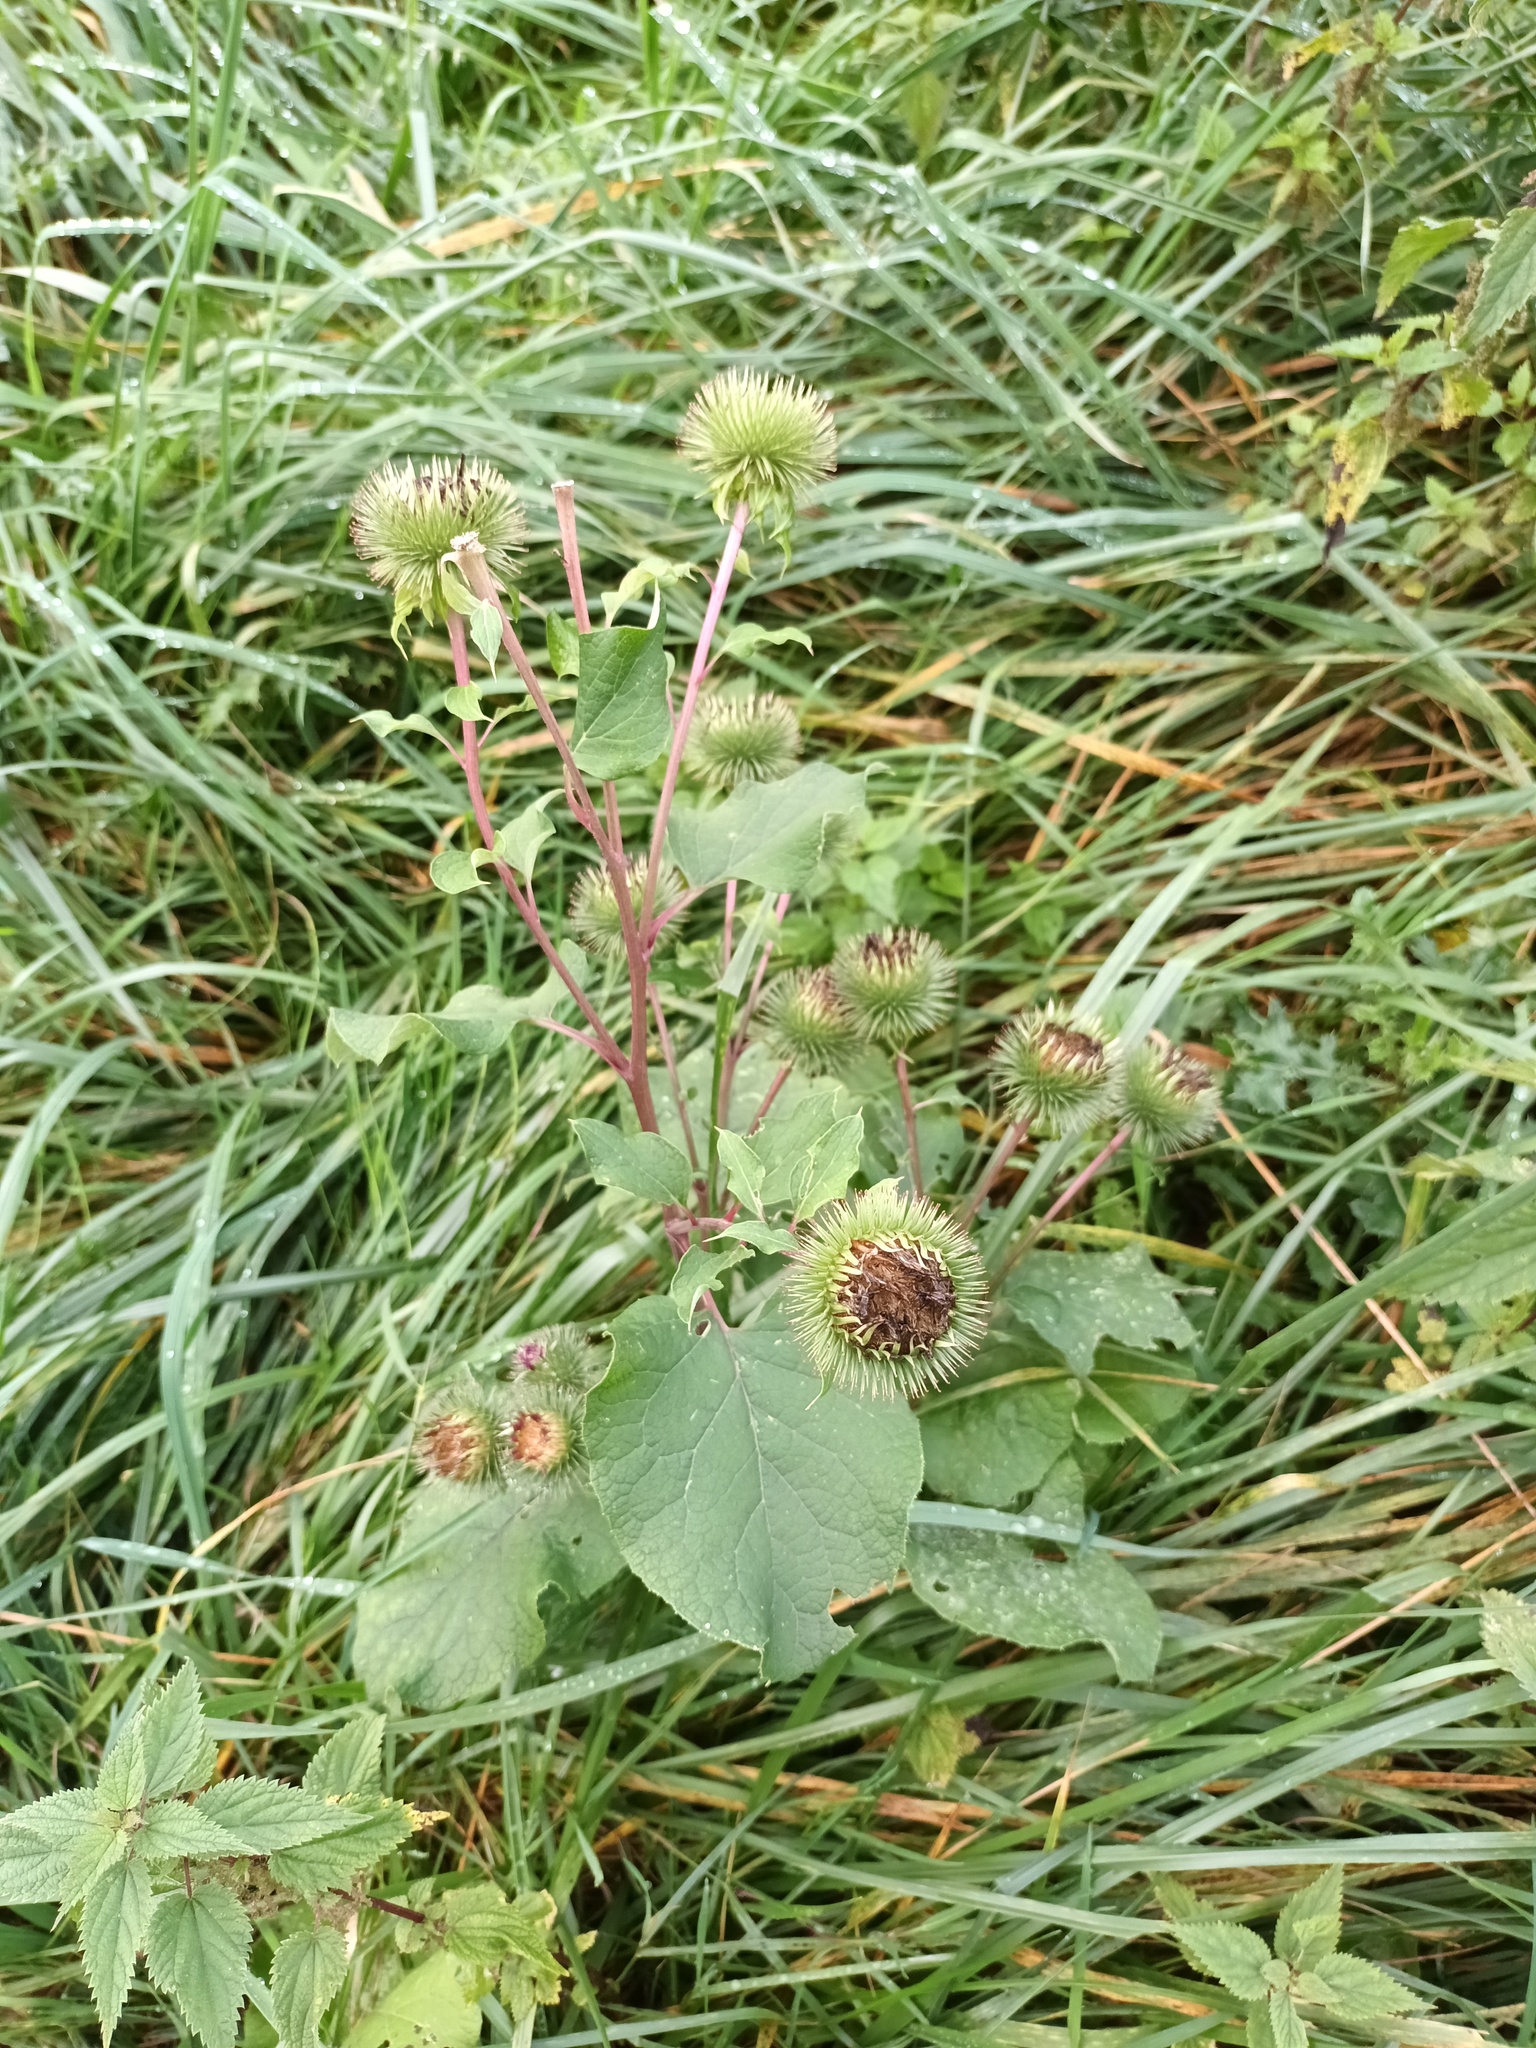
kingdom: Plantae
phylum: Tracheophyta
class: Magnoliopsida
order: Asterales
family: Asteraceae
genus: Arctium
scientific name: Arctium lappa
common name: Greater burdock
